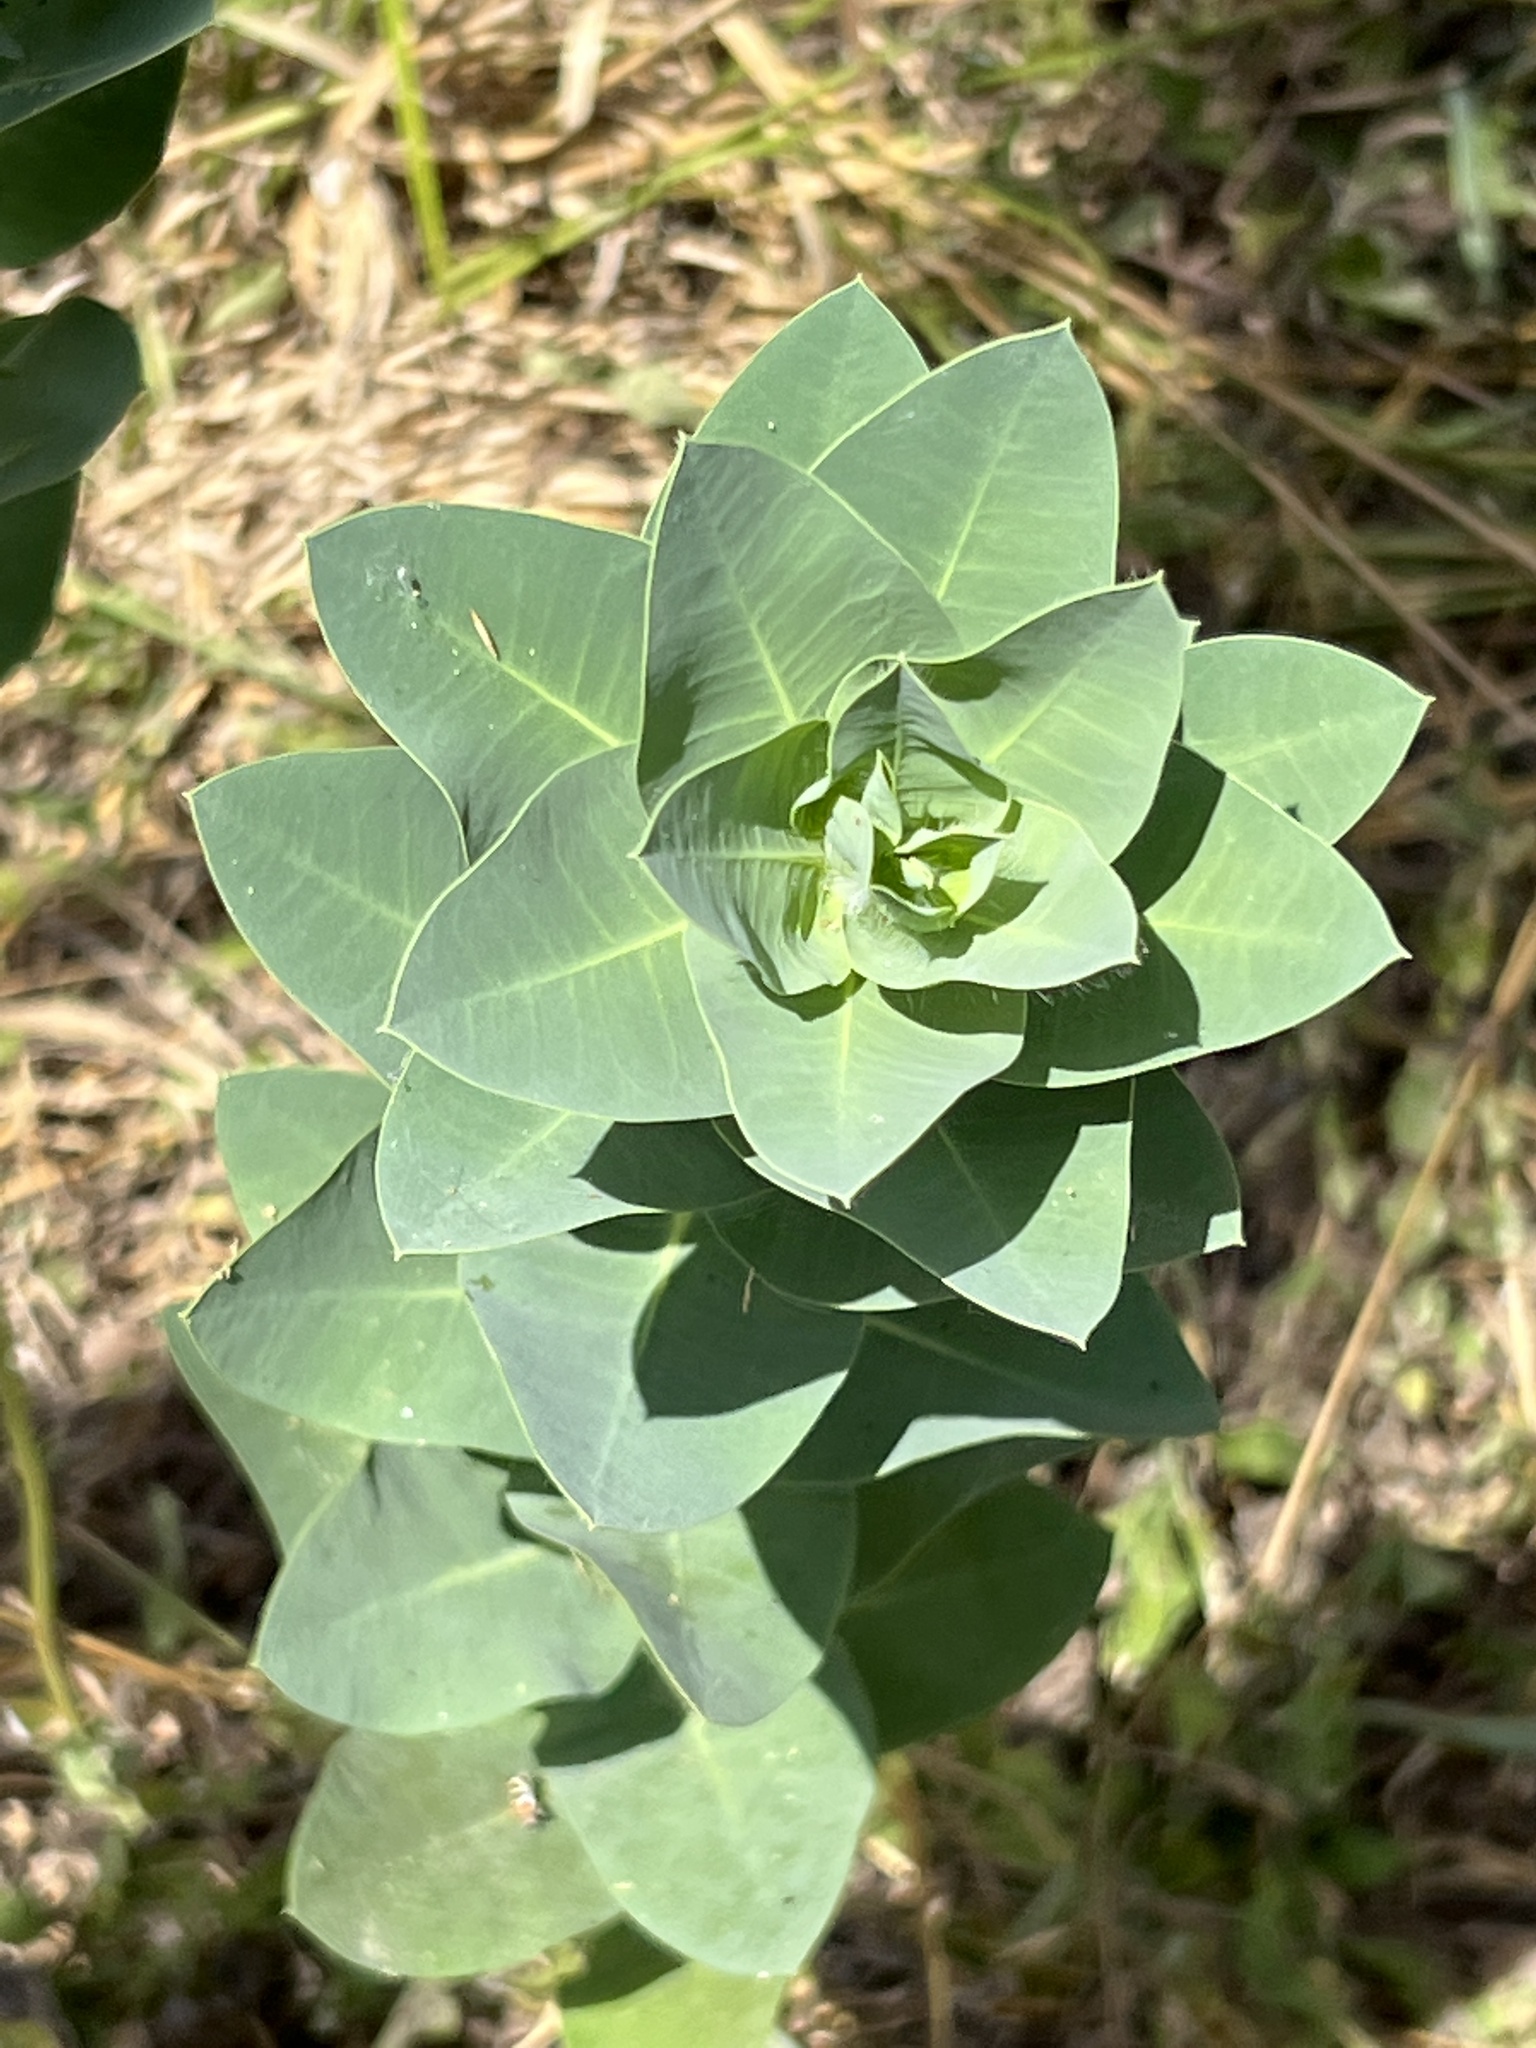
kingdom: Plantae
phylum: Tracheophyta
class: Magnoliopsida
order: Malpighiales
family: Euphorbiaceae
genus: Euphorbia
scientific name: Euphorbia marginata
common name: Ghostweed
